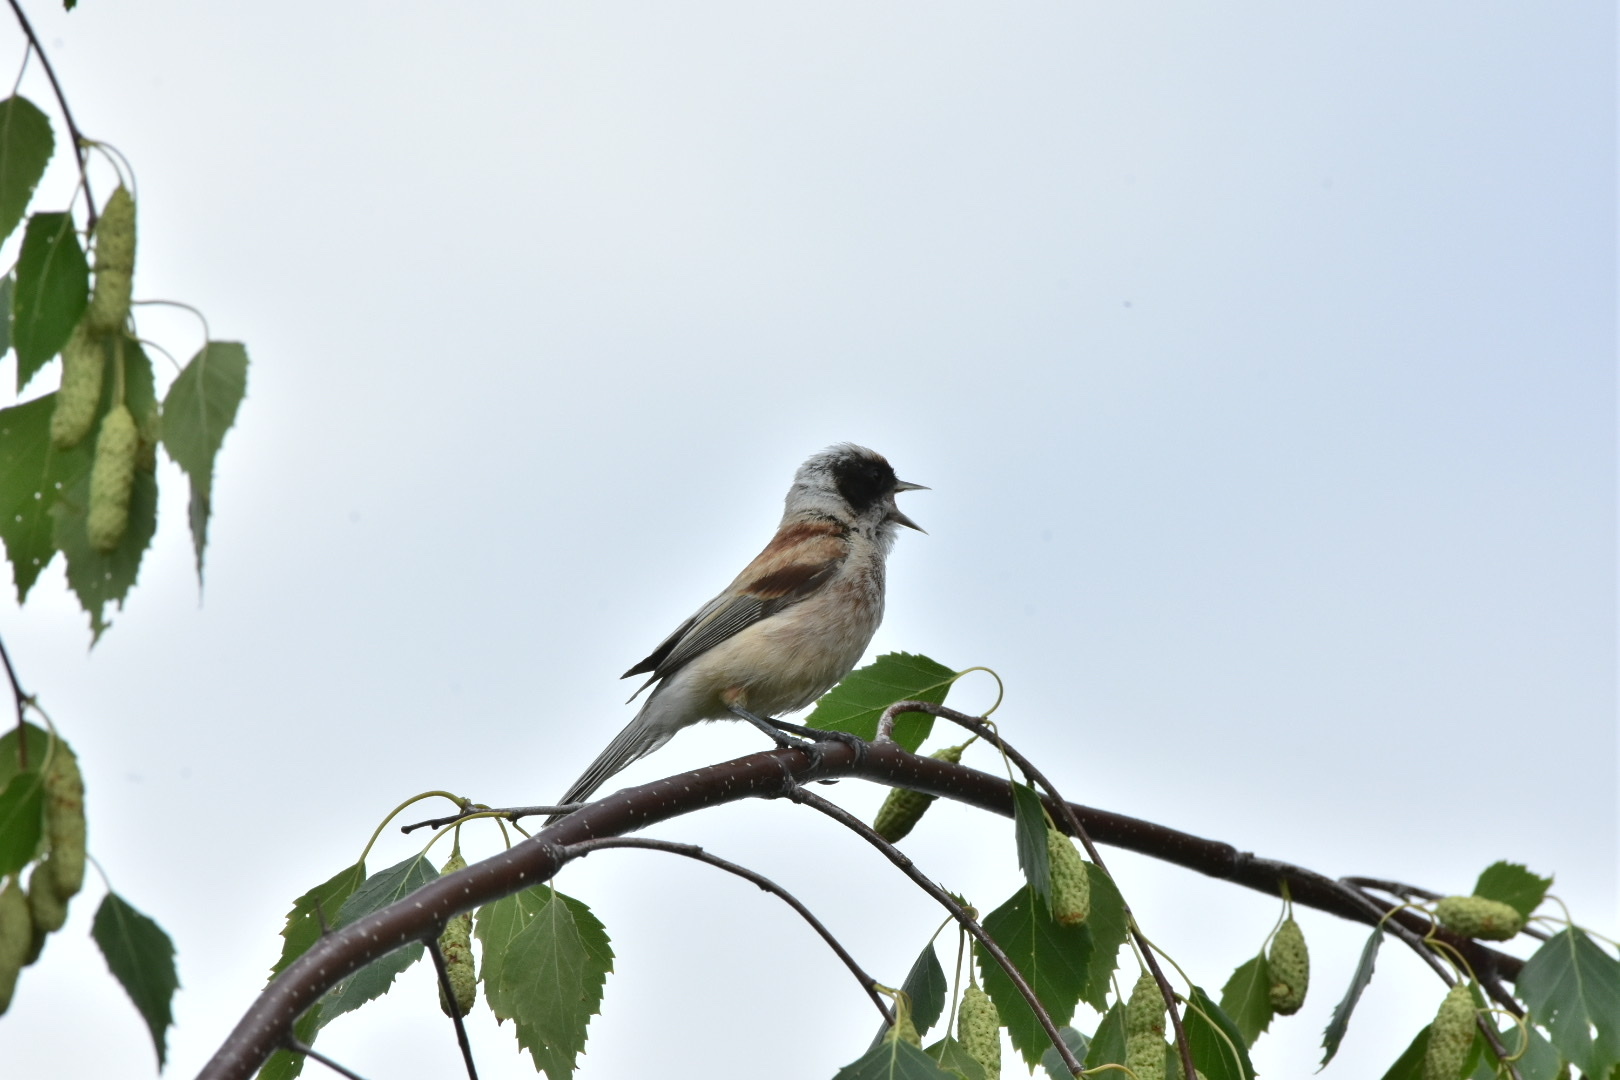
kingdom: Animalia
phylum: Chordata
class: Aves
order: Passeriformes
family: Remizidae
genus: Remiz
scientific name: Remiz pendulinus
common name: Eurasian penduline tit
